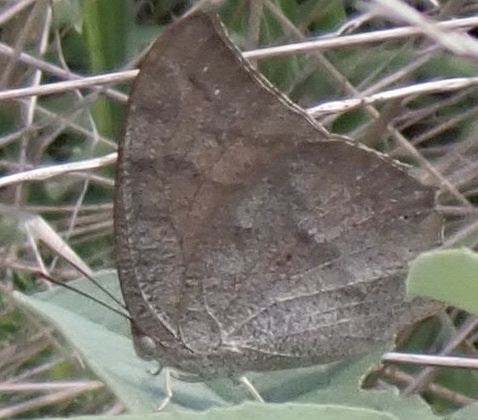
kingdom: Animalia
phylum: Arthropoda
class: Insecta
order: Lepidoptera
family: Nymphalidae
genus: Anaea
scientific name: Anaea andria
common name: Goatweed leafwing
